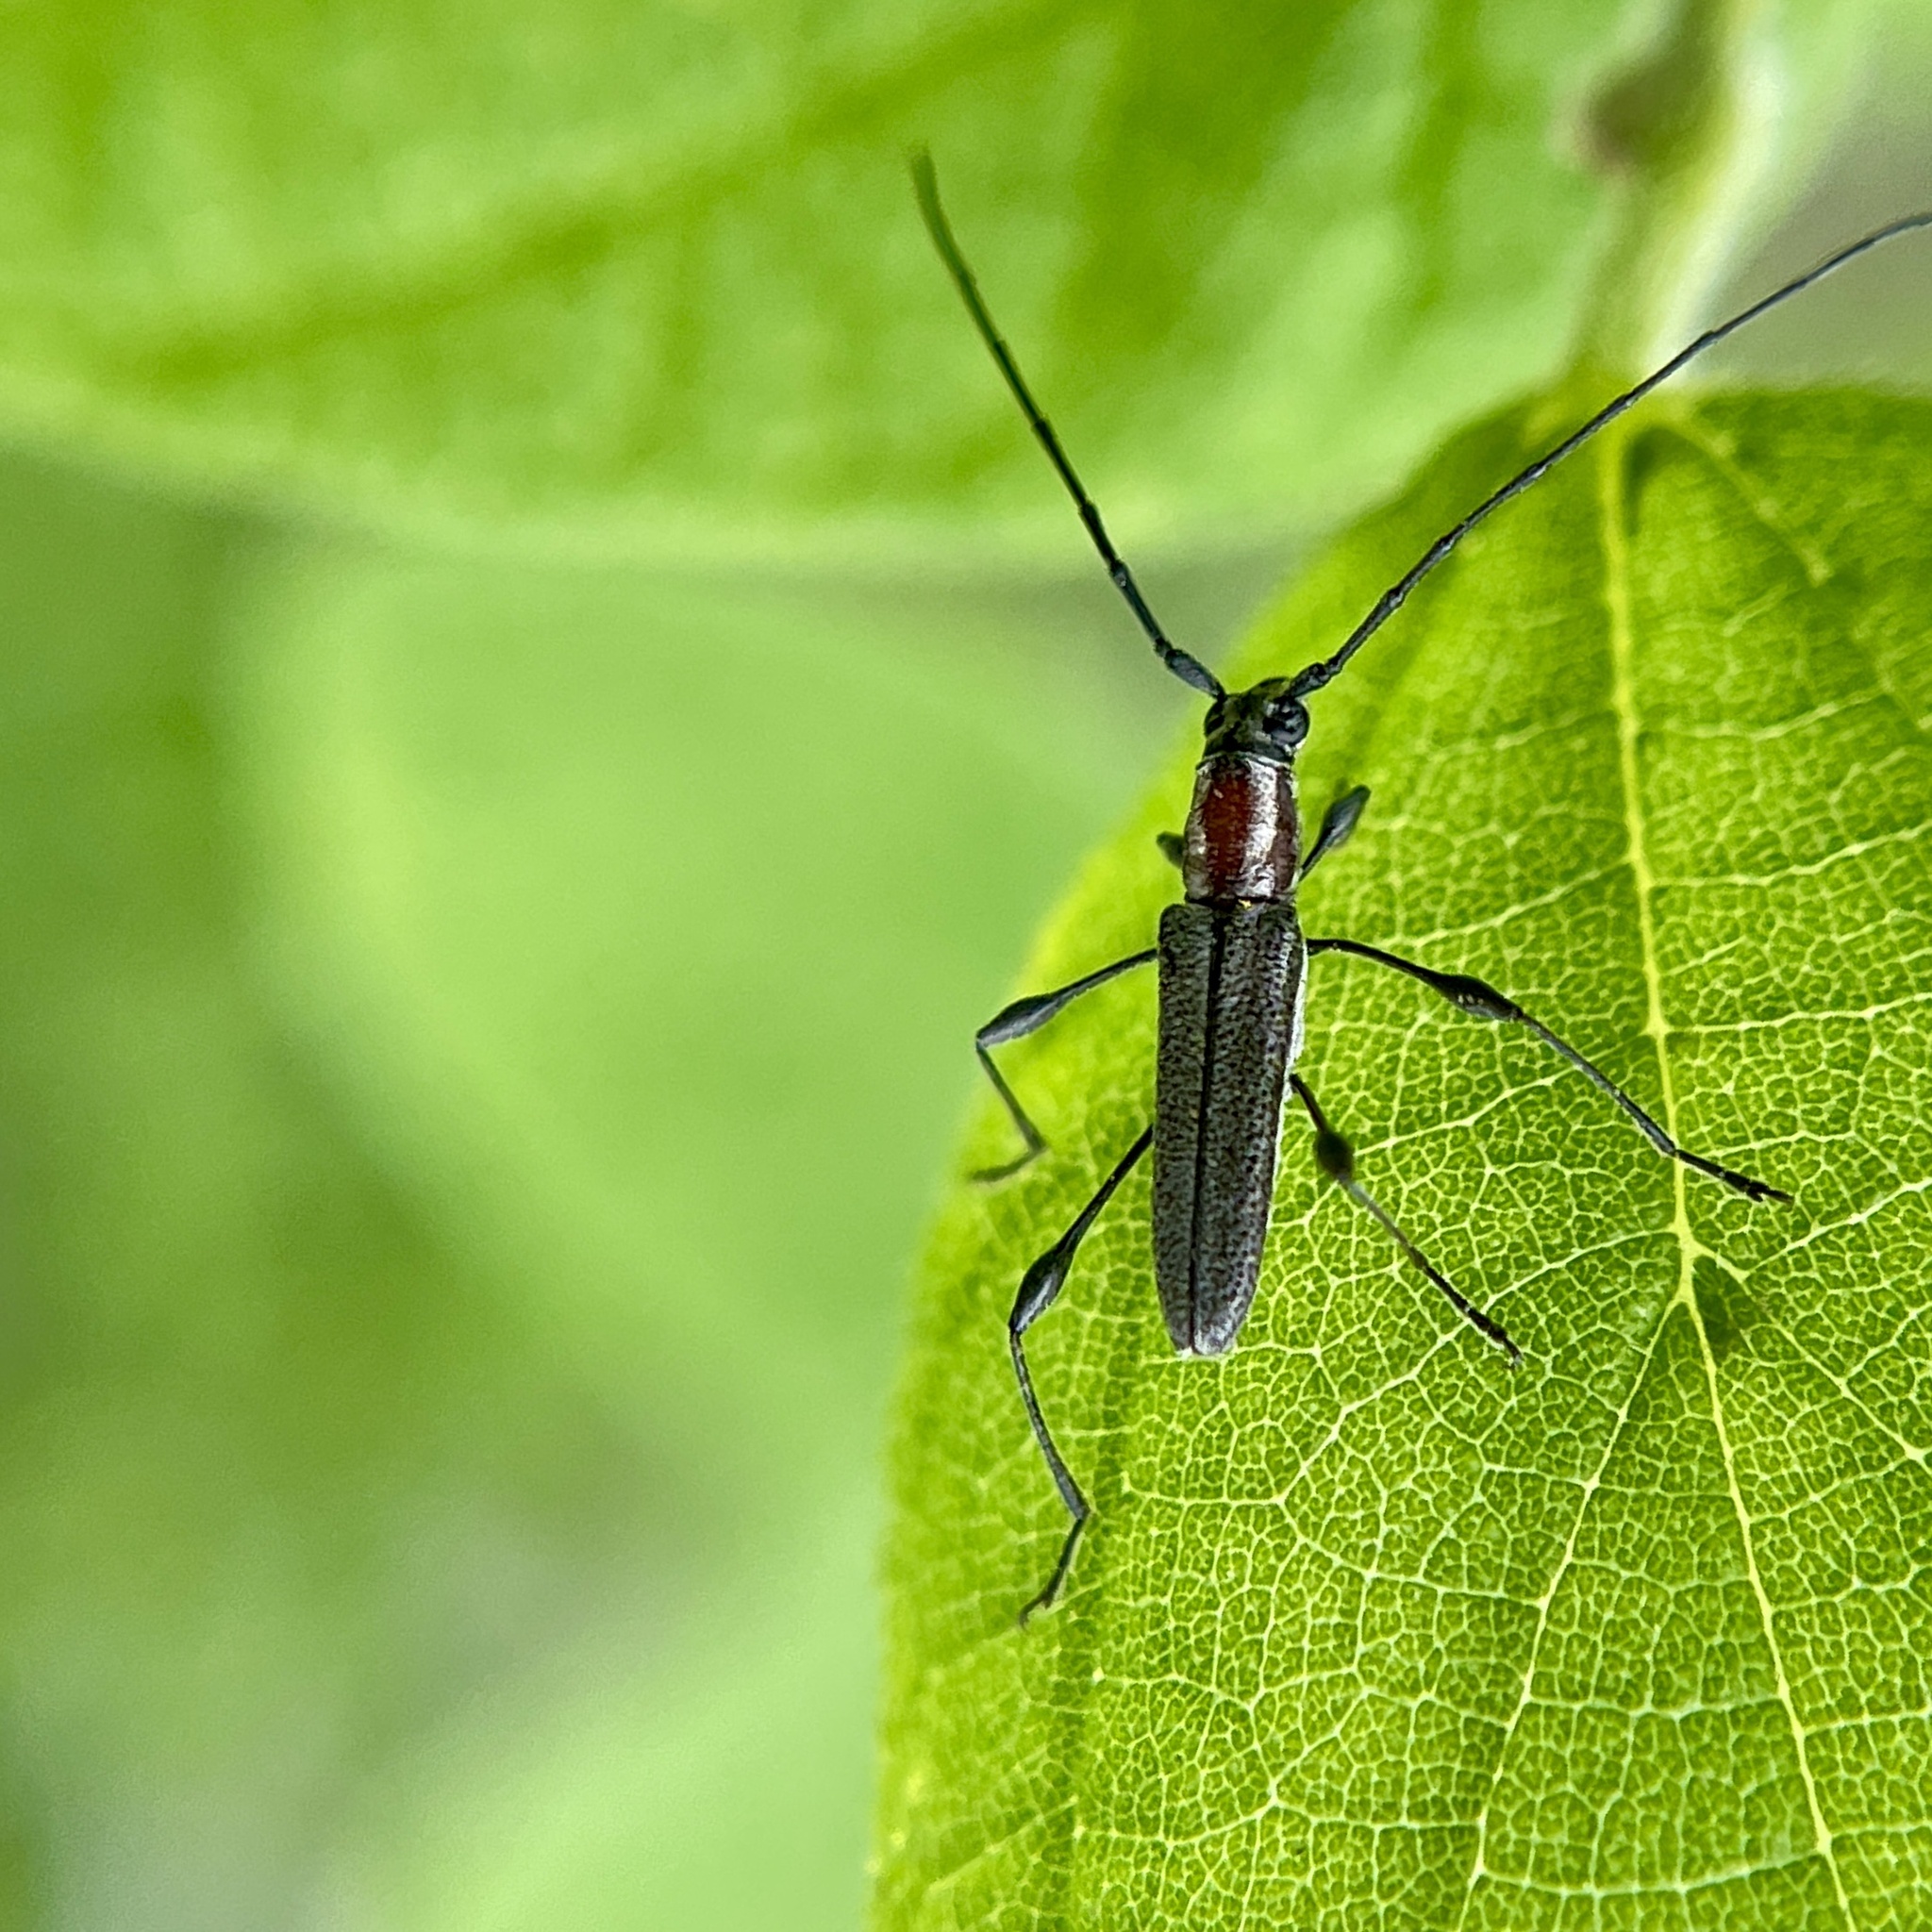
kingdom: Animalia
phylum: Arthropoda
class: Insecta
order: Coleoptera
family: Cerambycidae
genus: Rhopalophora
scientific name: Rhopalophora longipes
